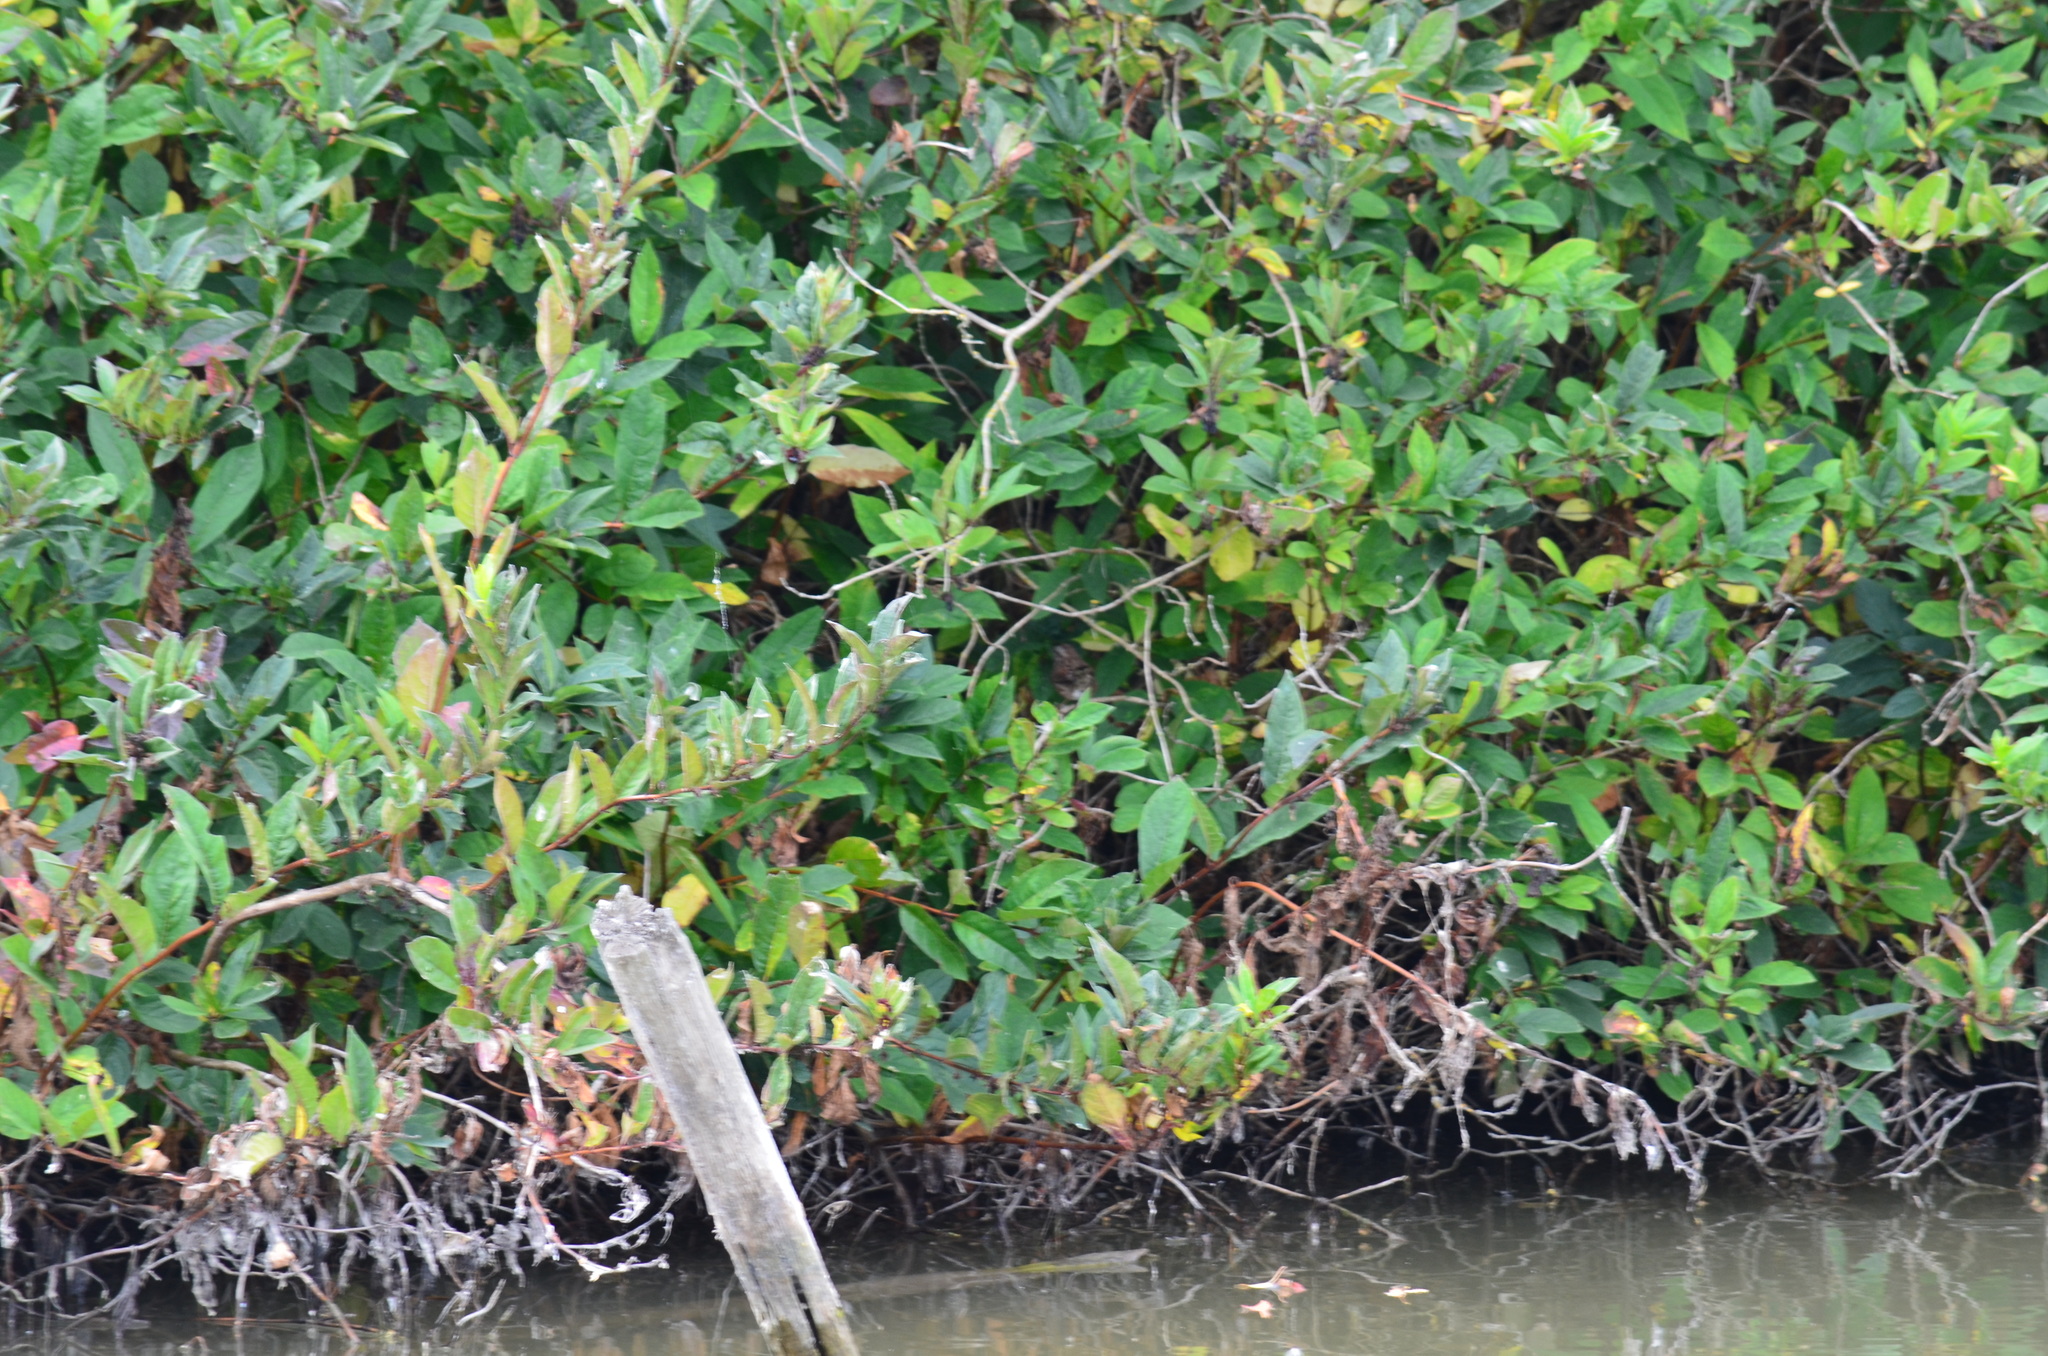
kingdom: Animalia
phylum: Chordata
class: Aves
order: Passeriformes
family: Passerellidae
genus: Melospiza
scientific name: Melospiza melodia
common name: Song sparrow
